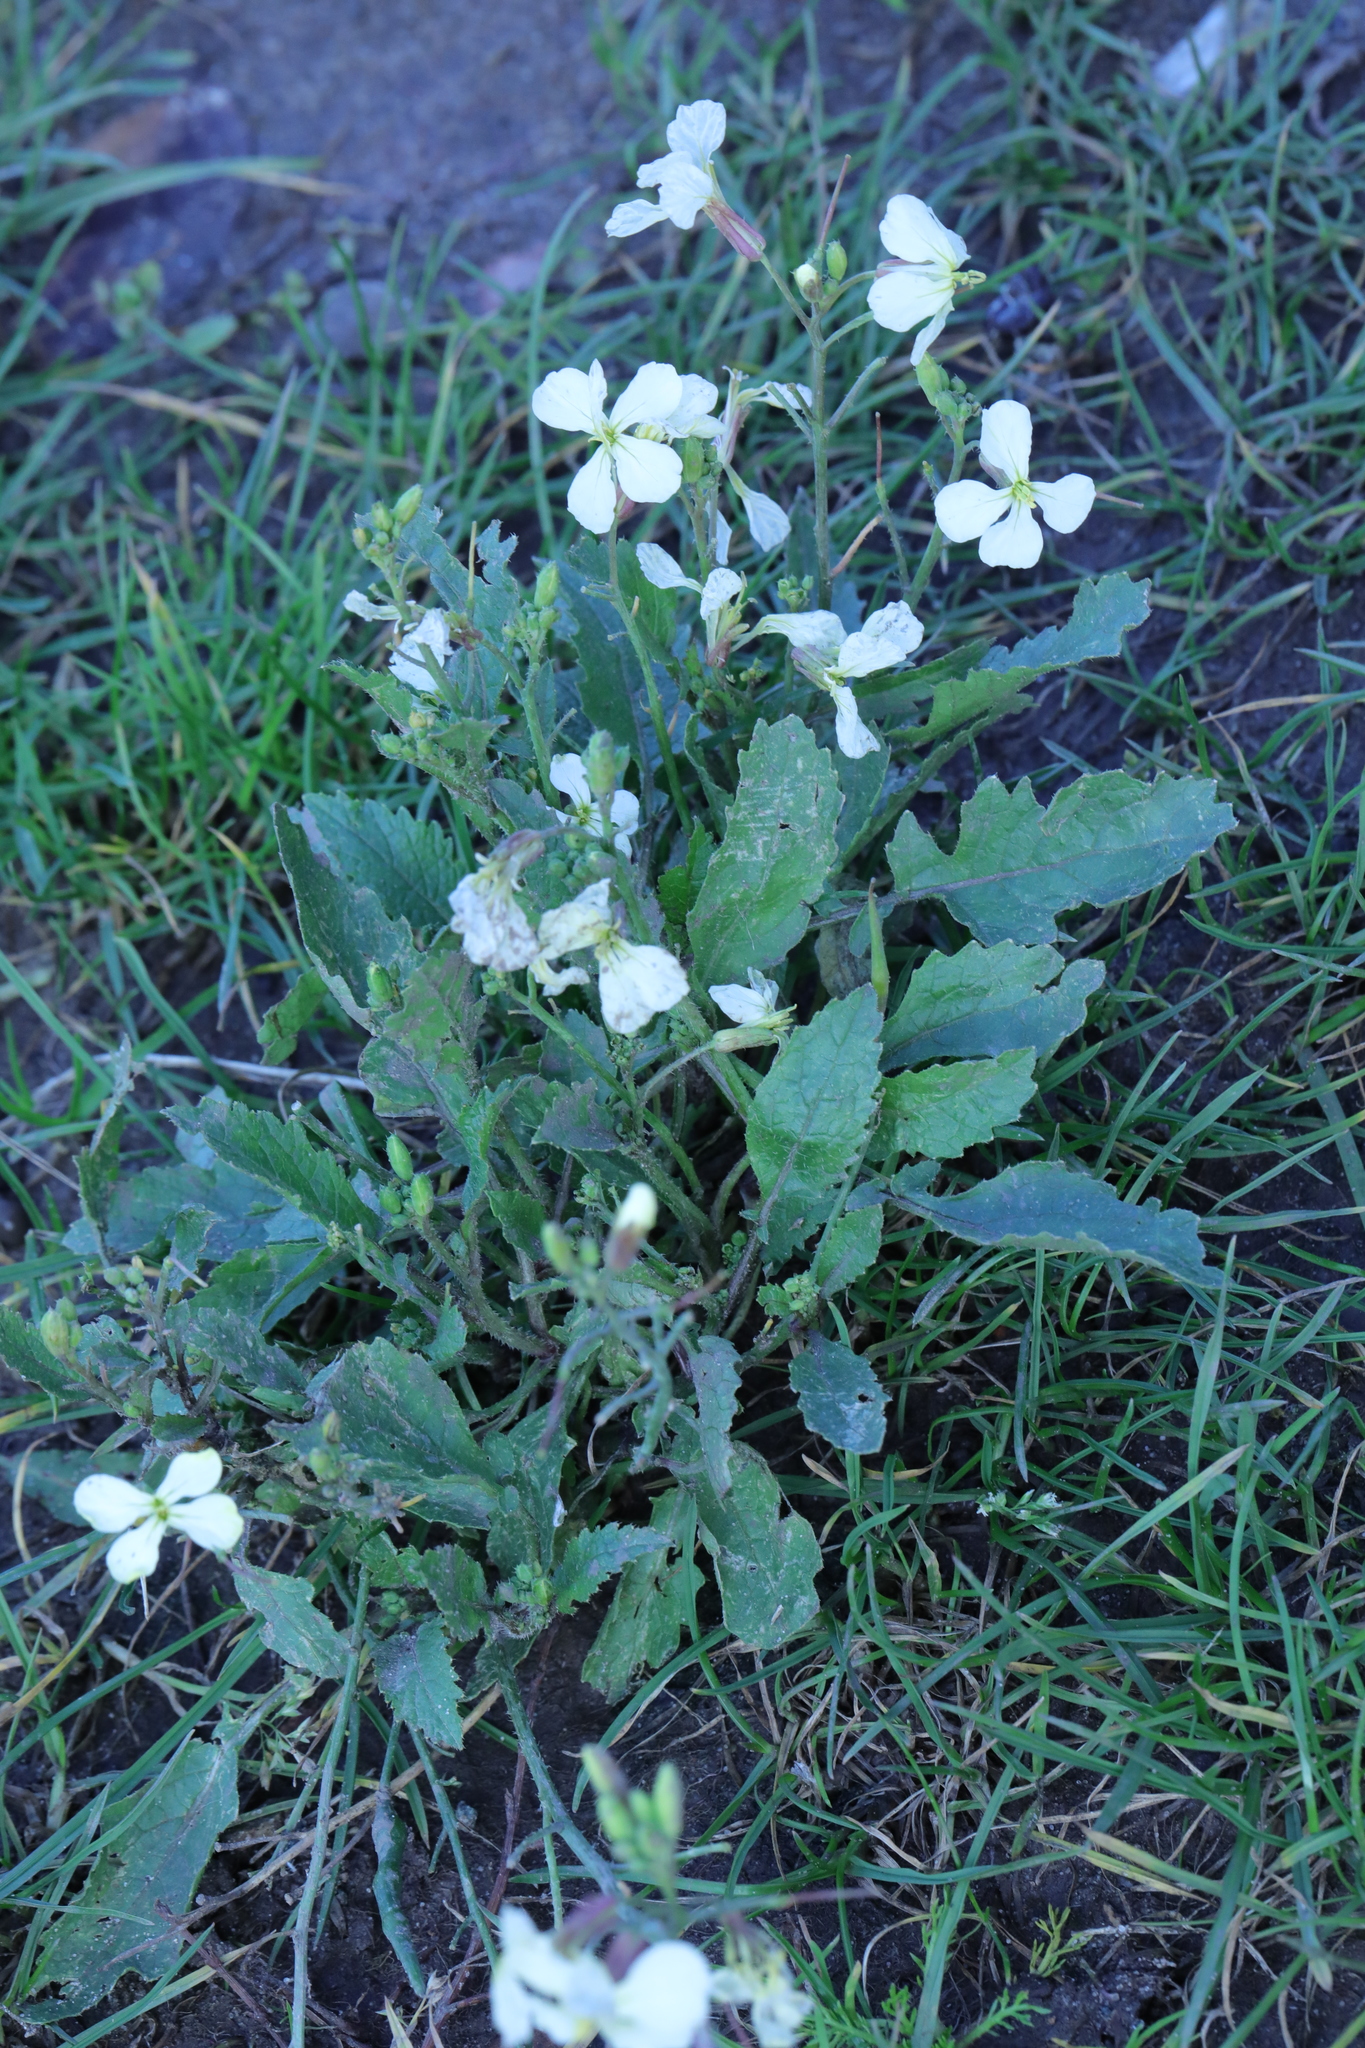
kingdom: Plantae
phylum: Tracheophyta
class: Magnoliopsida
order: Brassicales
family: Brassicaceae
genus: Raphanus
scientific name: Raphanus raphanistrum
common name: Wild radish
